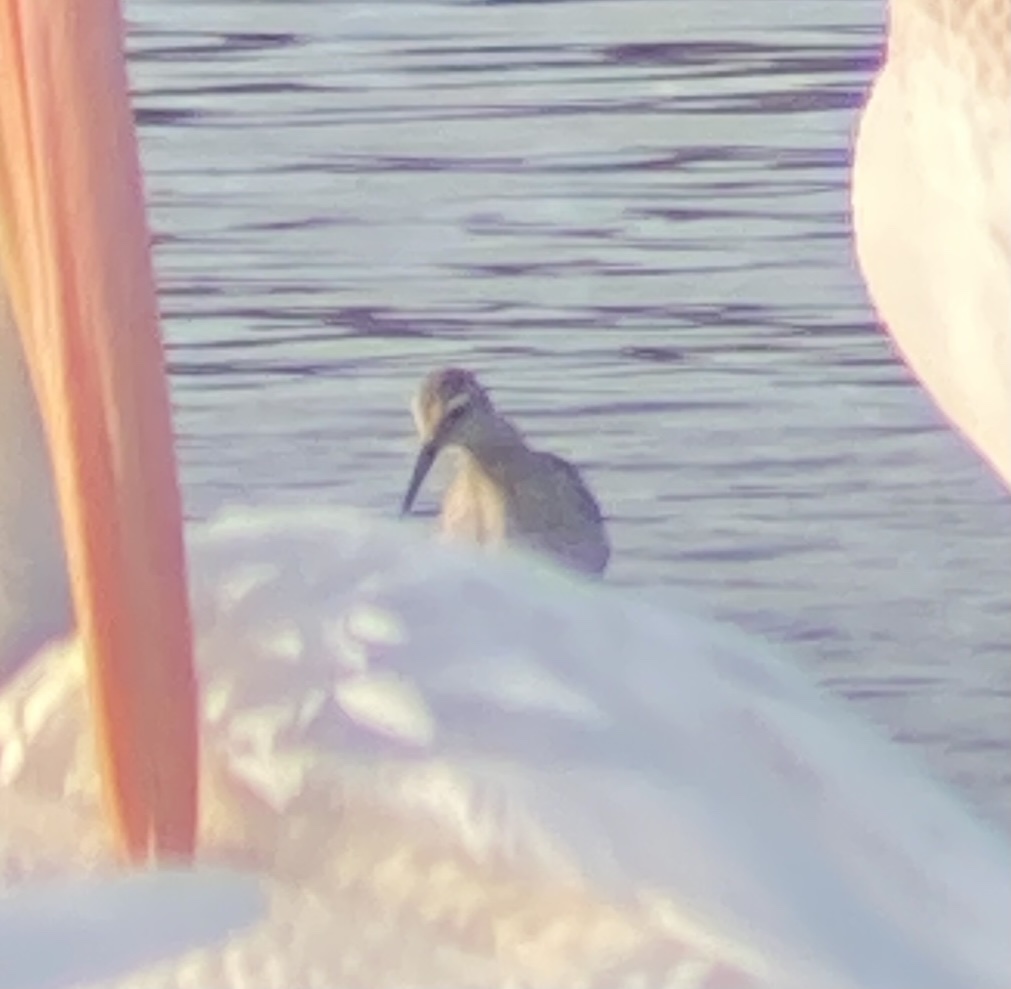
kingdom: Animalia
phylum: Chordata
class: Aves
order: Charadriiformes
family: Scolopacidae
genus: Calidris
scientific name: Calidris himantopus
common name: Stilt sandpiper
